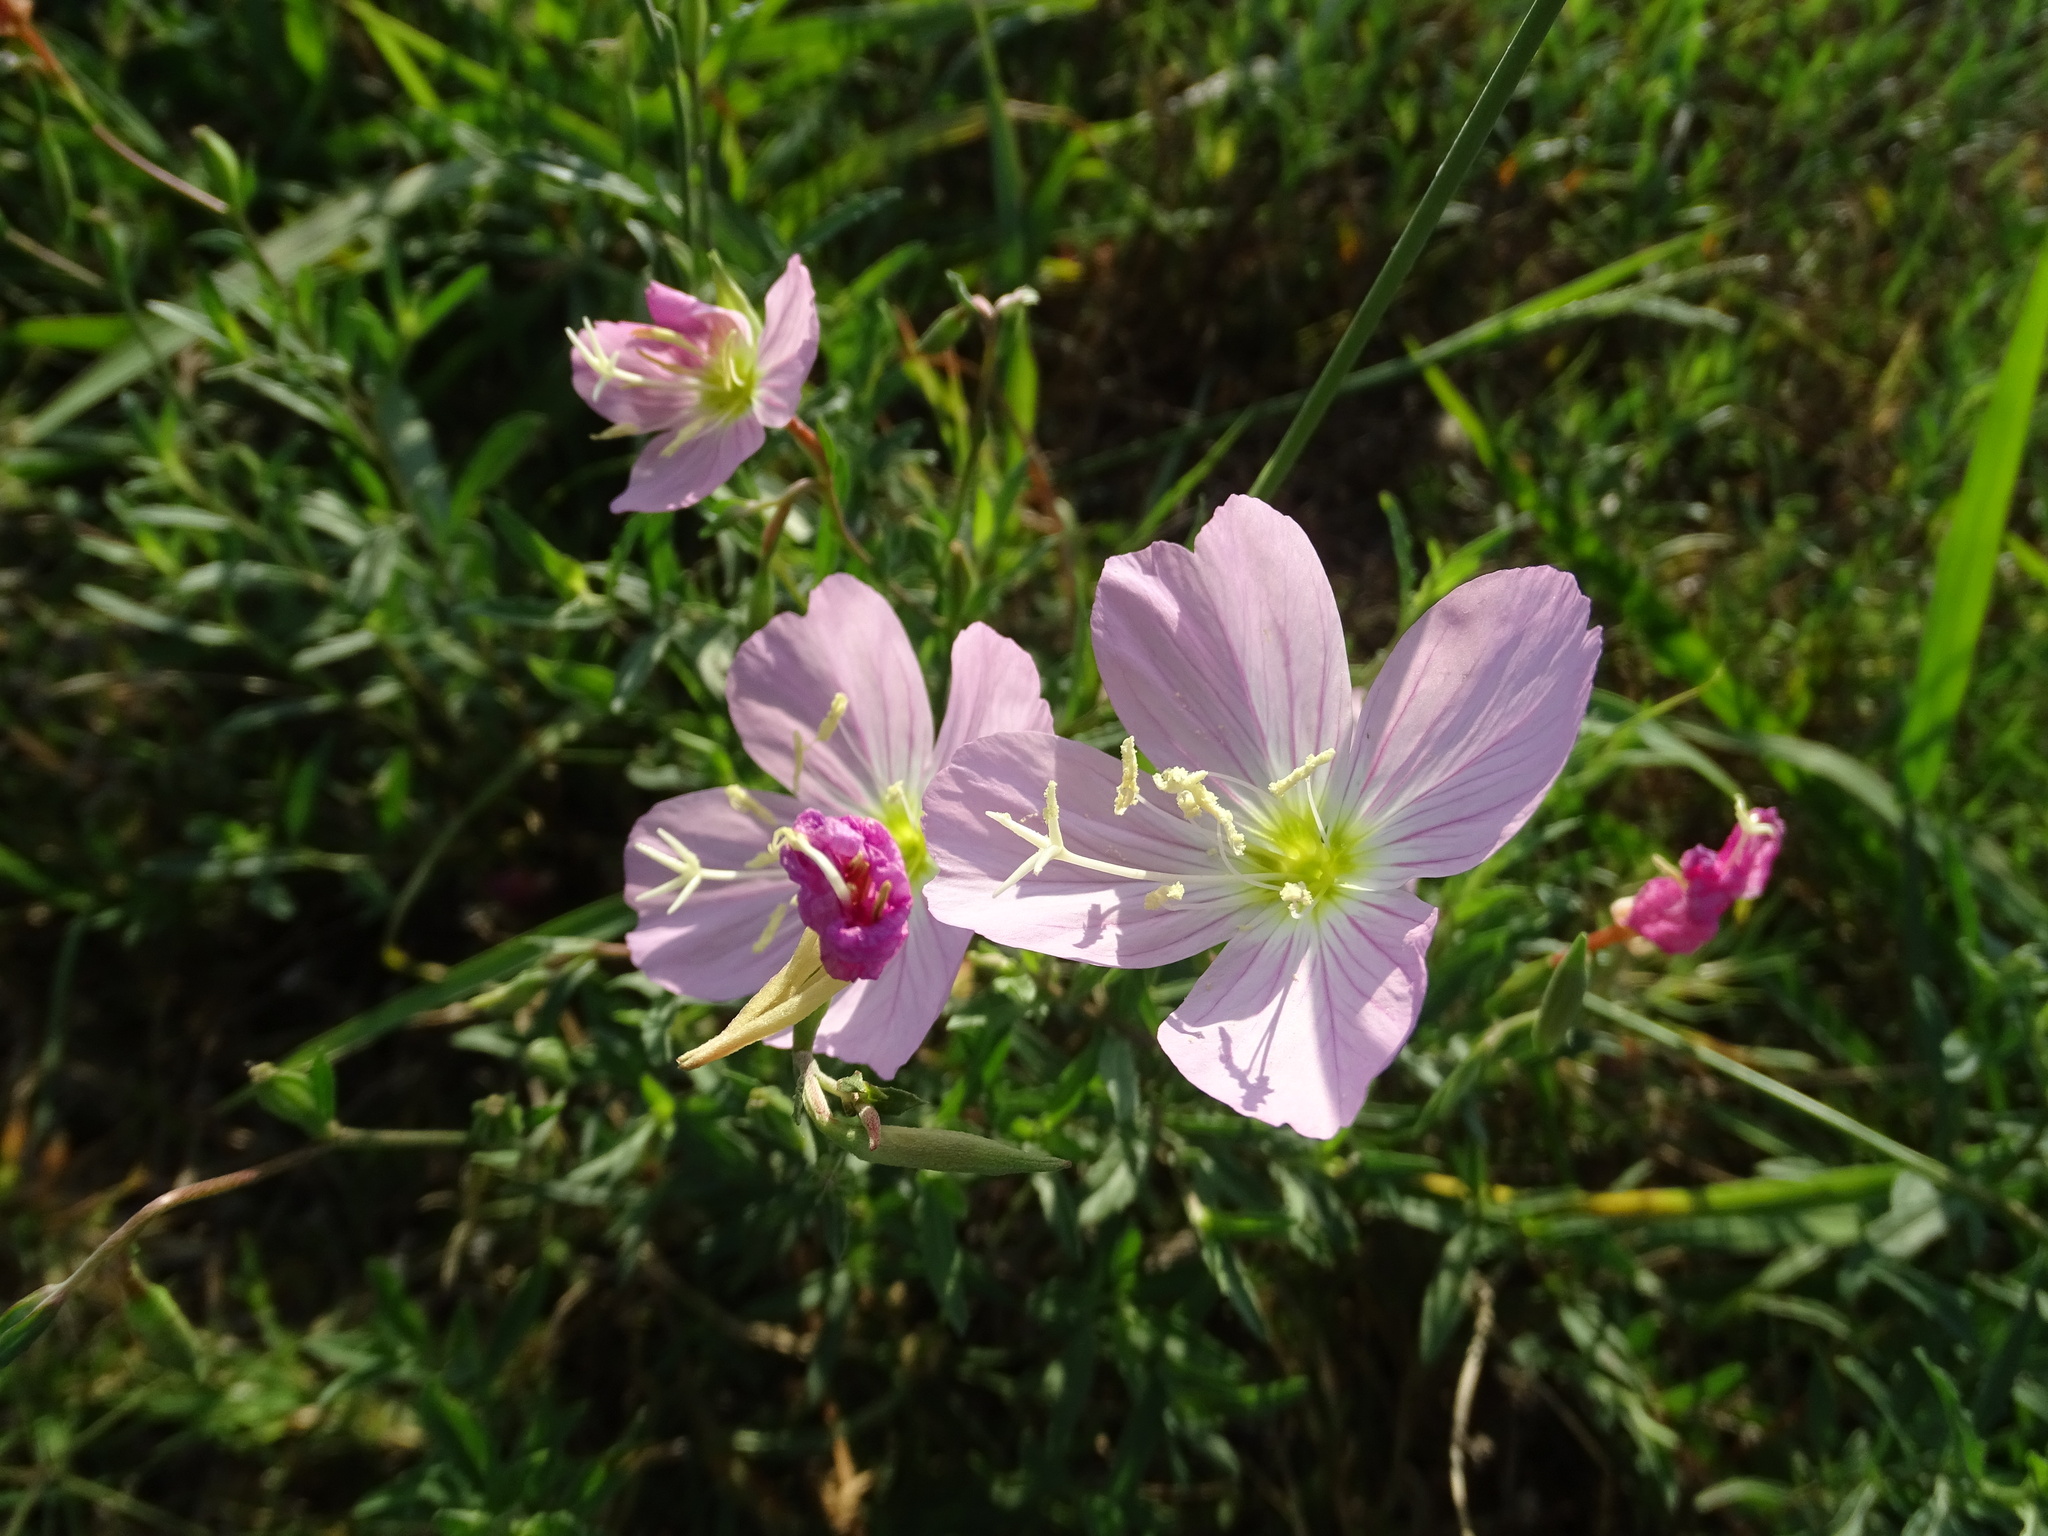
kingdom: Plantae
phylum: Tracheophyta
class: Magnoliopsida
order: Myrtales
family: Onagraceae
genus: Oenothera
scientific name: Oenothera speciosa
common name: White evening-primrose
